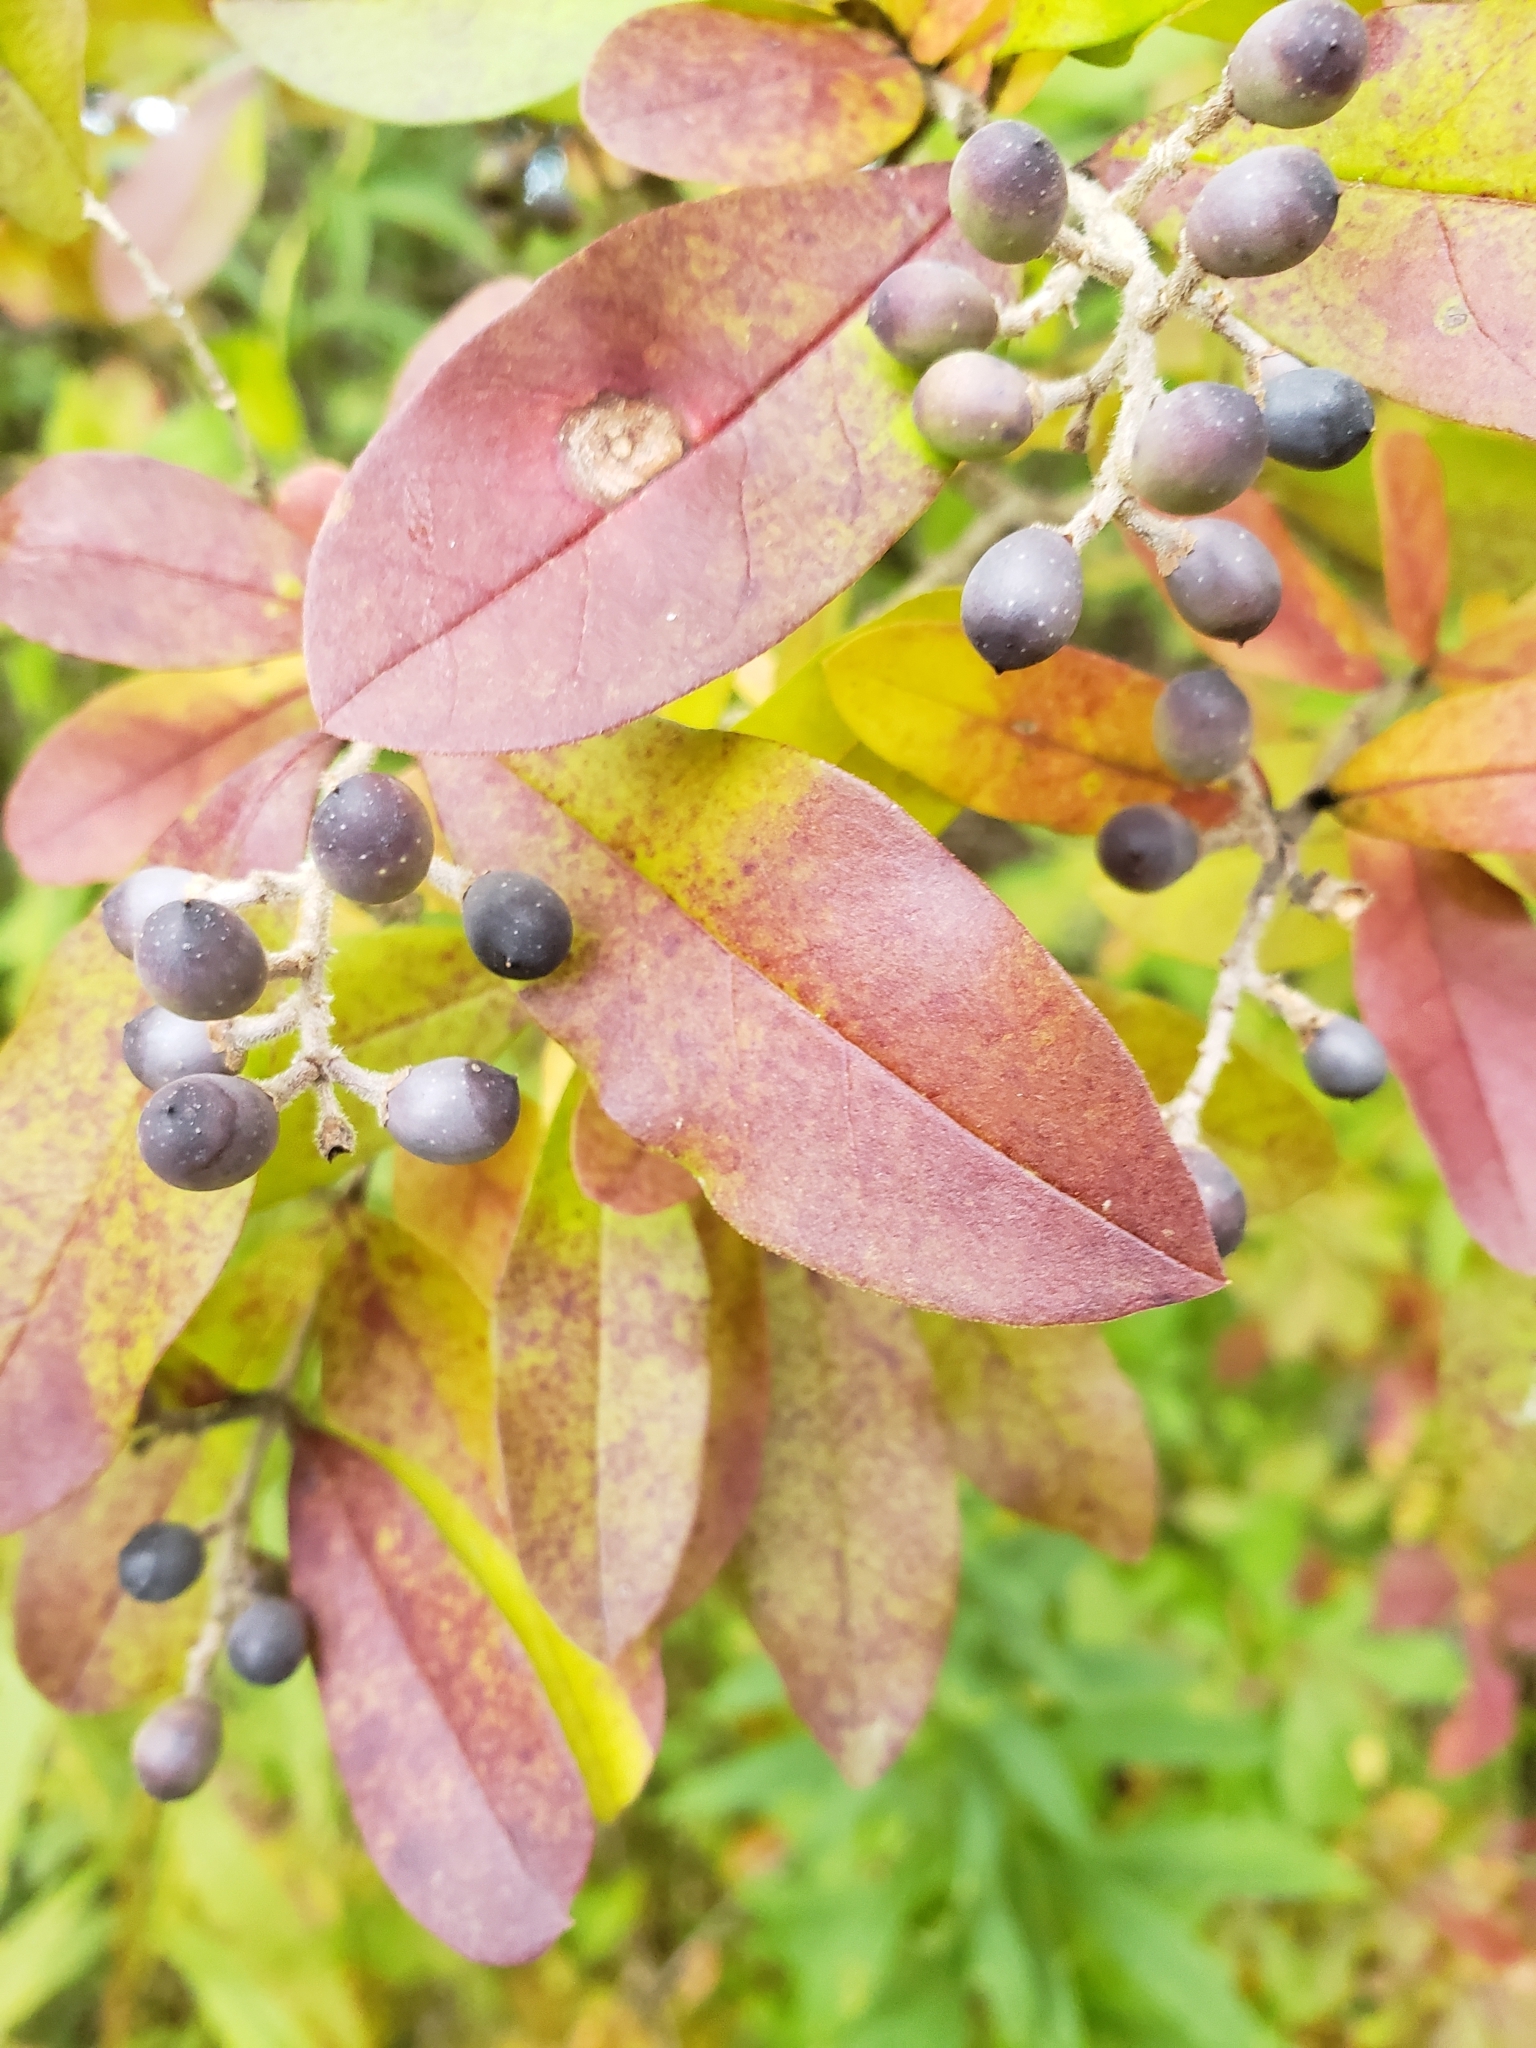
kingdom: Plantae
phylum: Tracheophyta
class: Magnoliopsida
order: Lamiales
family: Oleaceae
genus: Ligustrum
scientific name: Ligustrum
